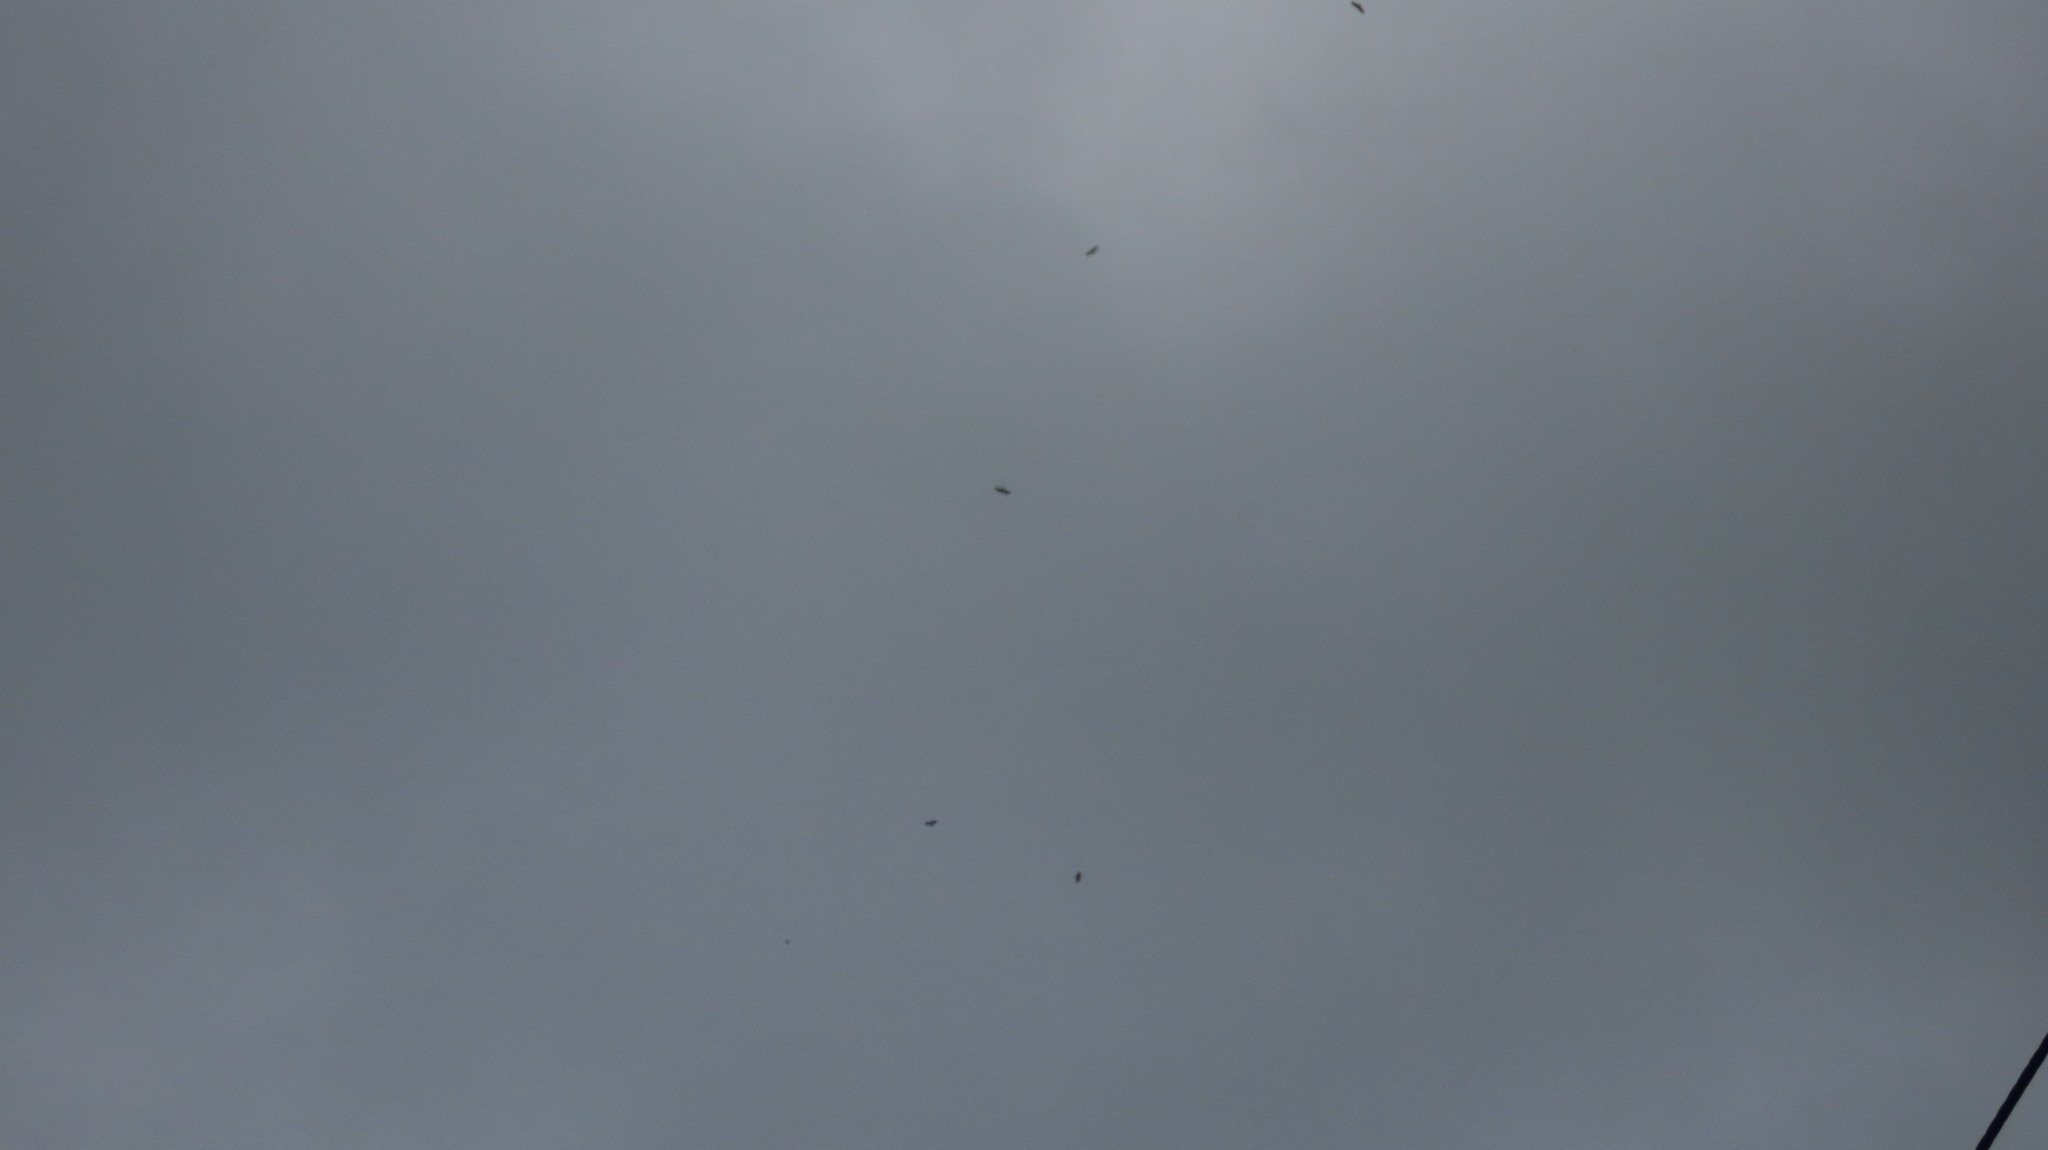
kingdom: Animalia
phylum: Chordata
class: Aves
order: Accipitriformes
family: Accipitridae
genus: Haliastur
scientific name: Haliastur indus
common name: Brahminy kite
